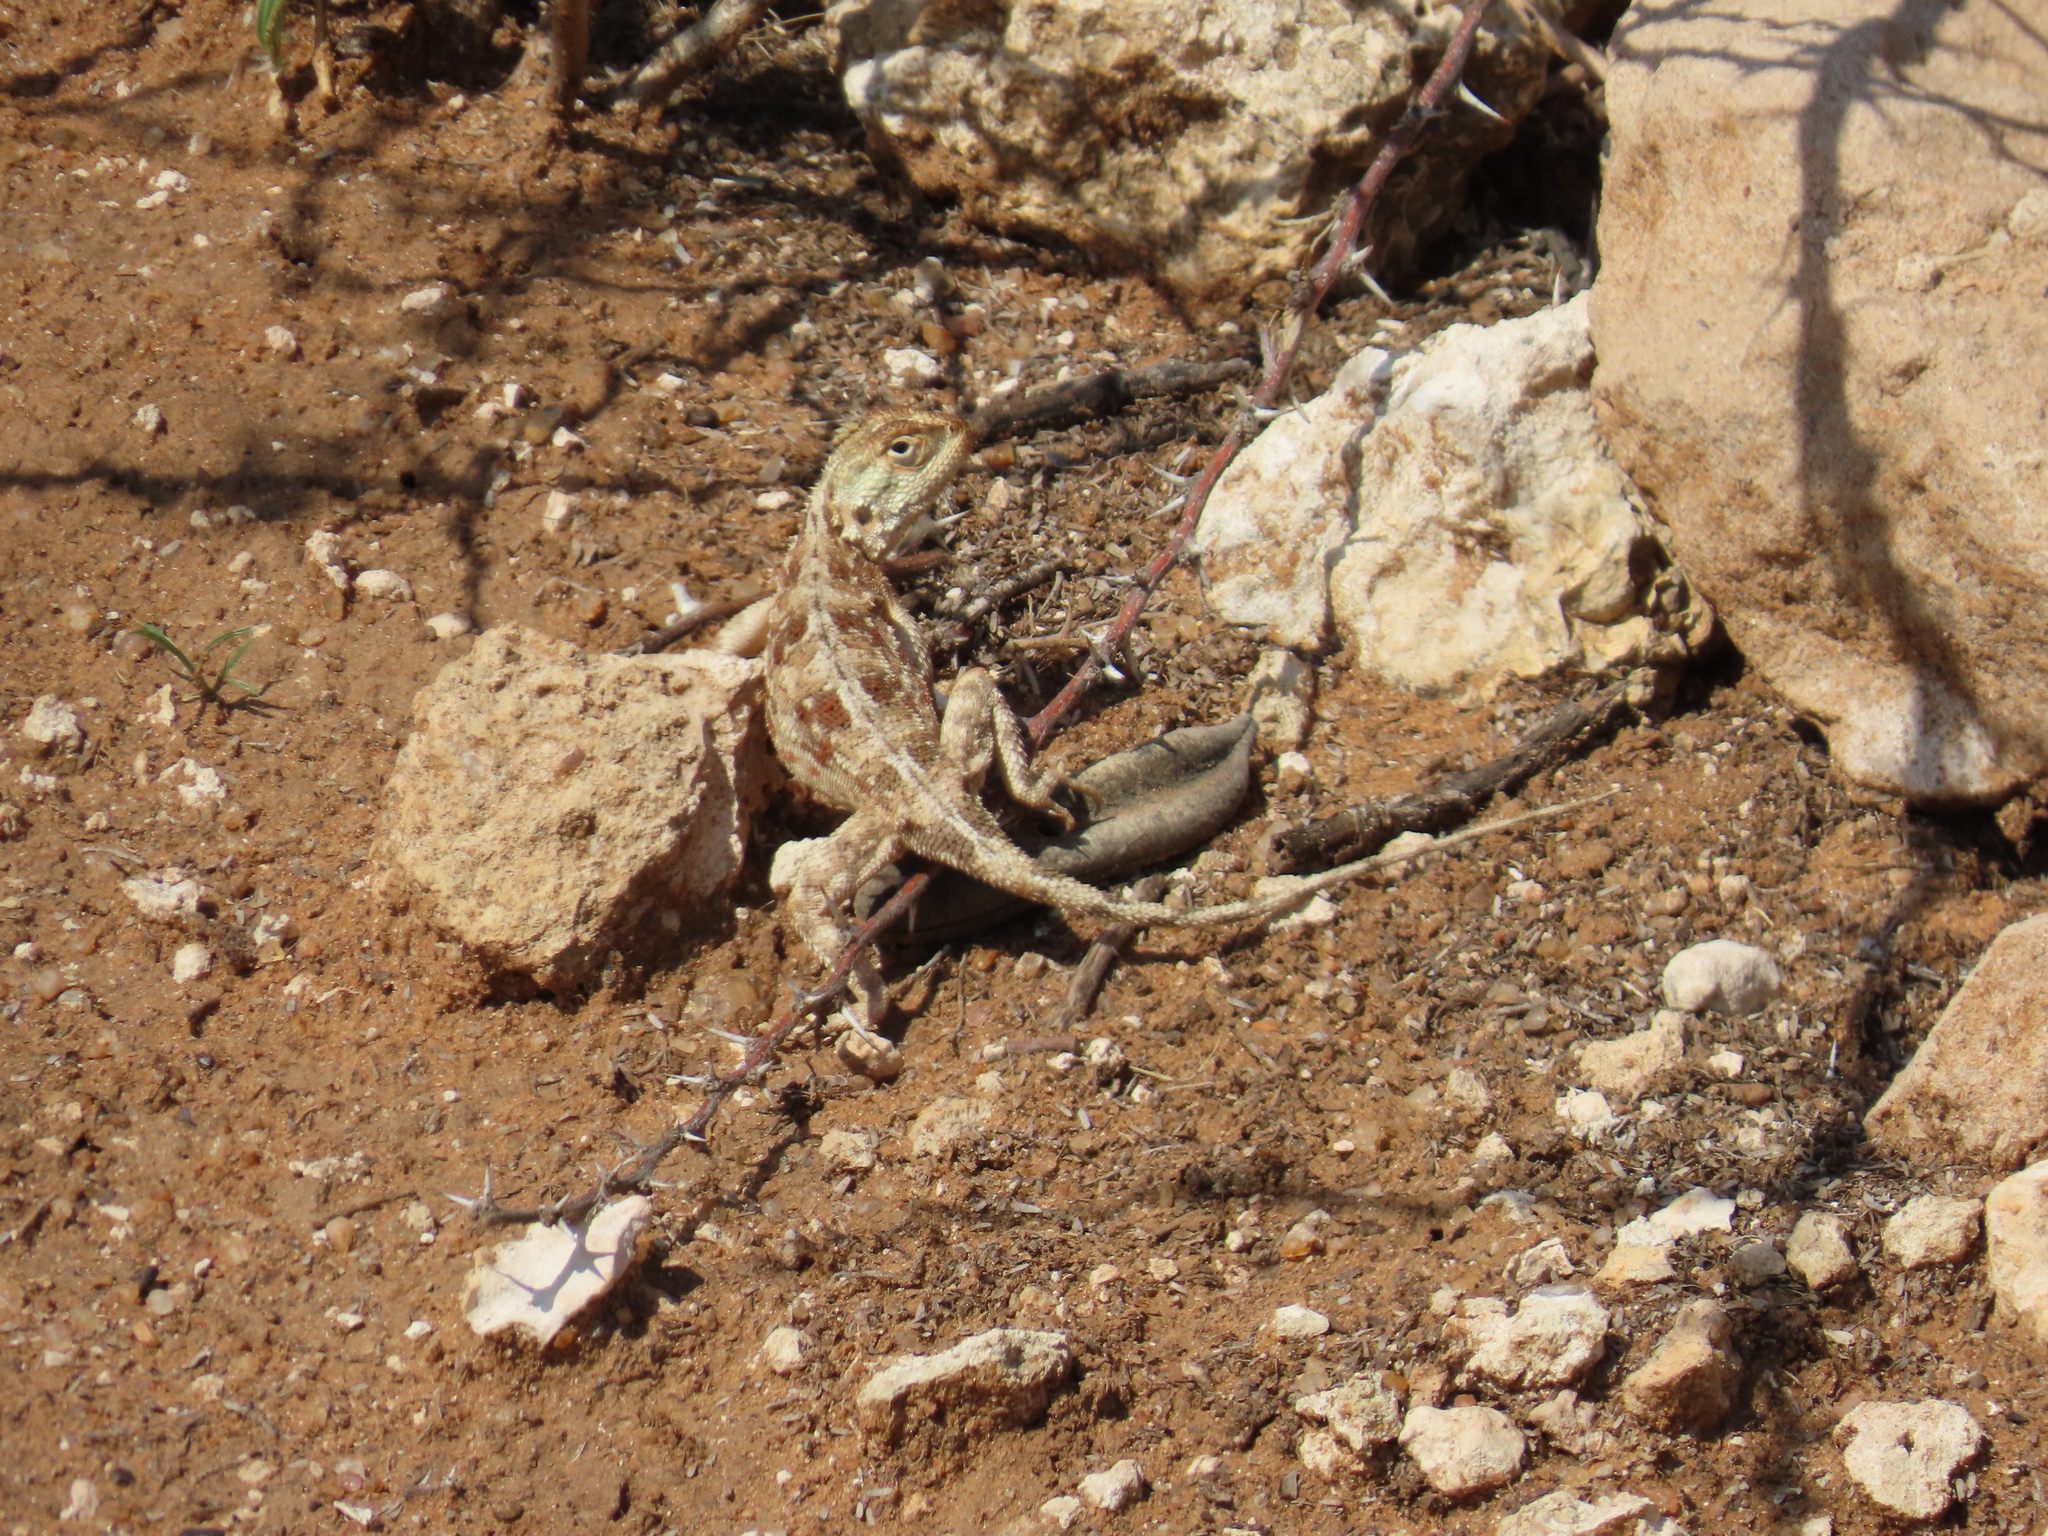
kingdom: Animalia
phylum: Chordata
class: Squamata
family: Agamidae
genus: Agama
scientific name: Agama aculeata
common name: Common ground agama
